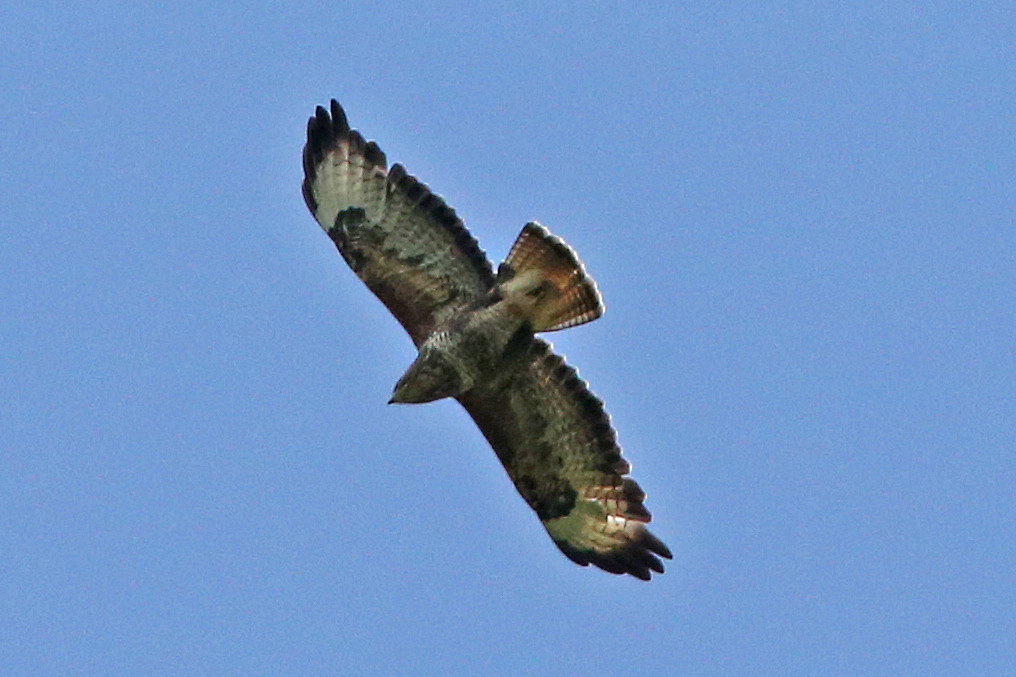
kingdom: Animalia
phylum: Chordata
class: Aves
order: Accipitriformes
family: Accipitridae
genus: Buteo
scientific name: Buteo buteo
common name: Common buzzard
